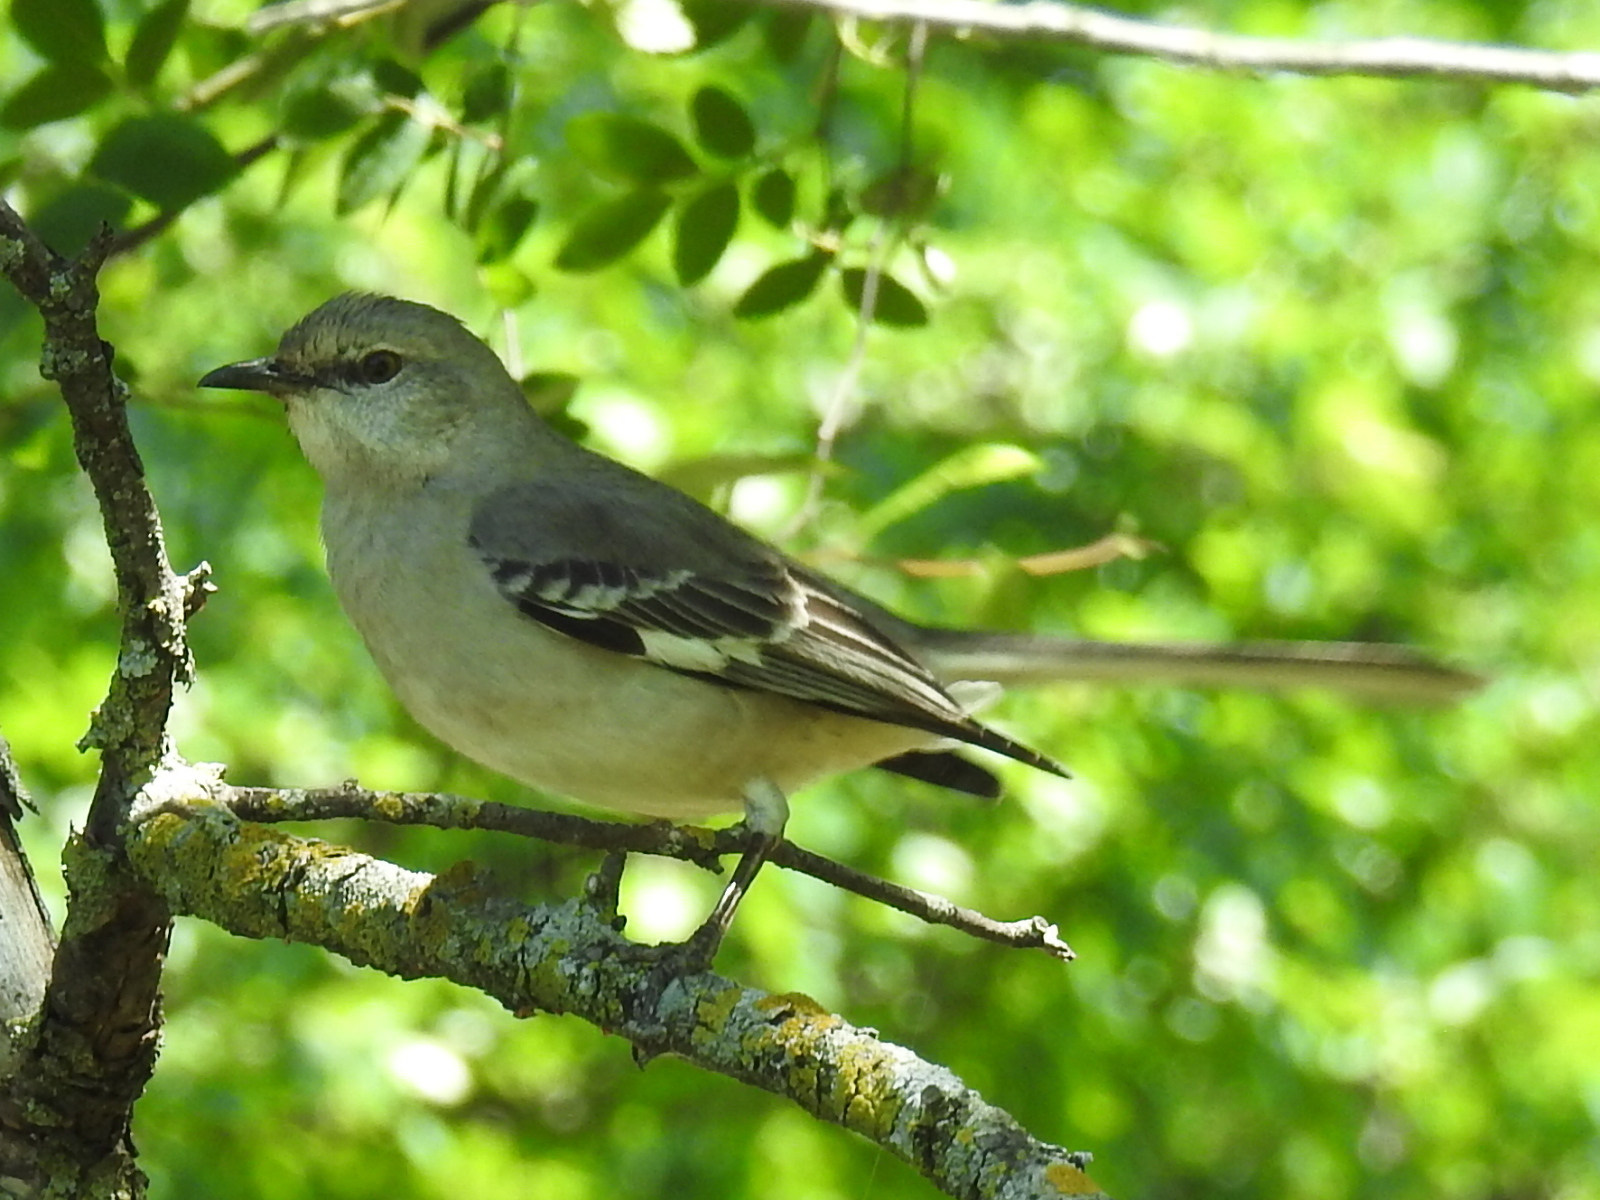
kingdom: Animalia
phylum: Chordata
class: Aves
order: Passeriformes
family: Mimidae
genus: Mimus
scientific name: Mimus polyglottos
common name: Northern mockingbird
